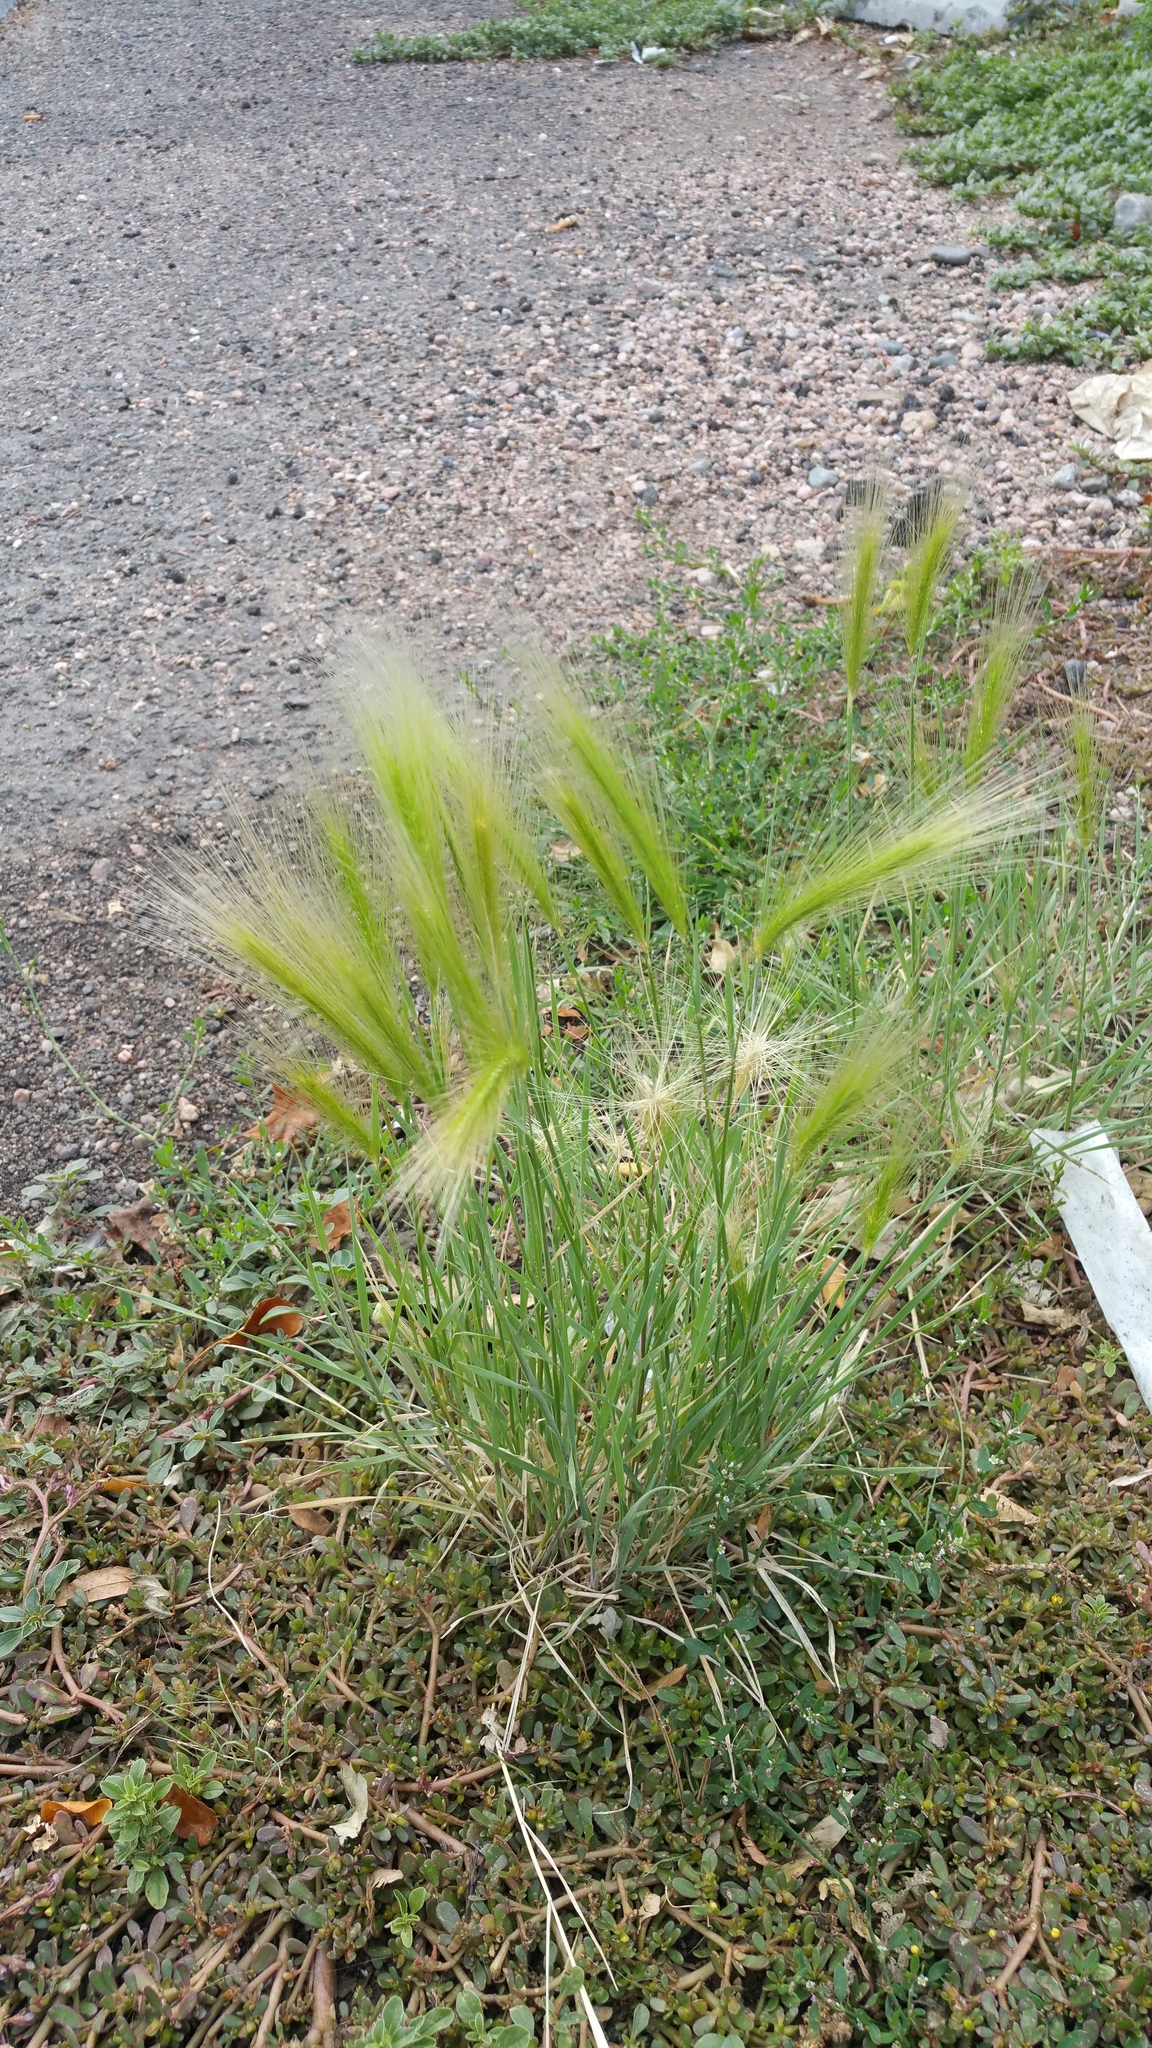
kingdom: Plantae
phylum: Tracheophyta
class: Liliopsida
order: Poales
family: Poaceae
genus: Hordeum
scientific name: Hordeum jubatum
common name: Foxtail barley
